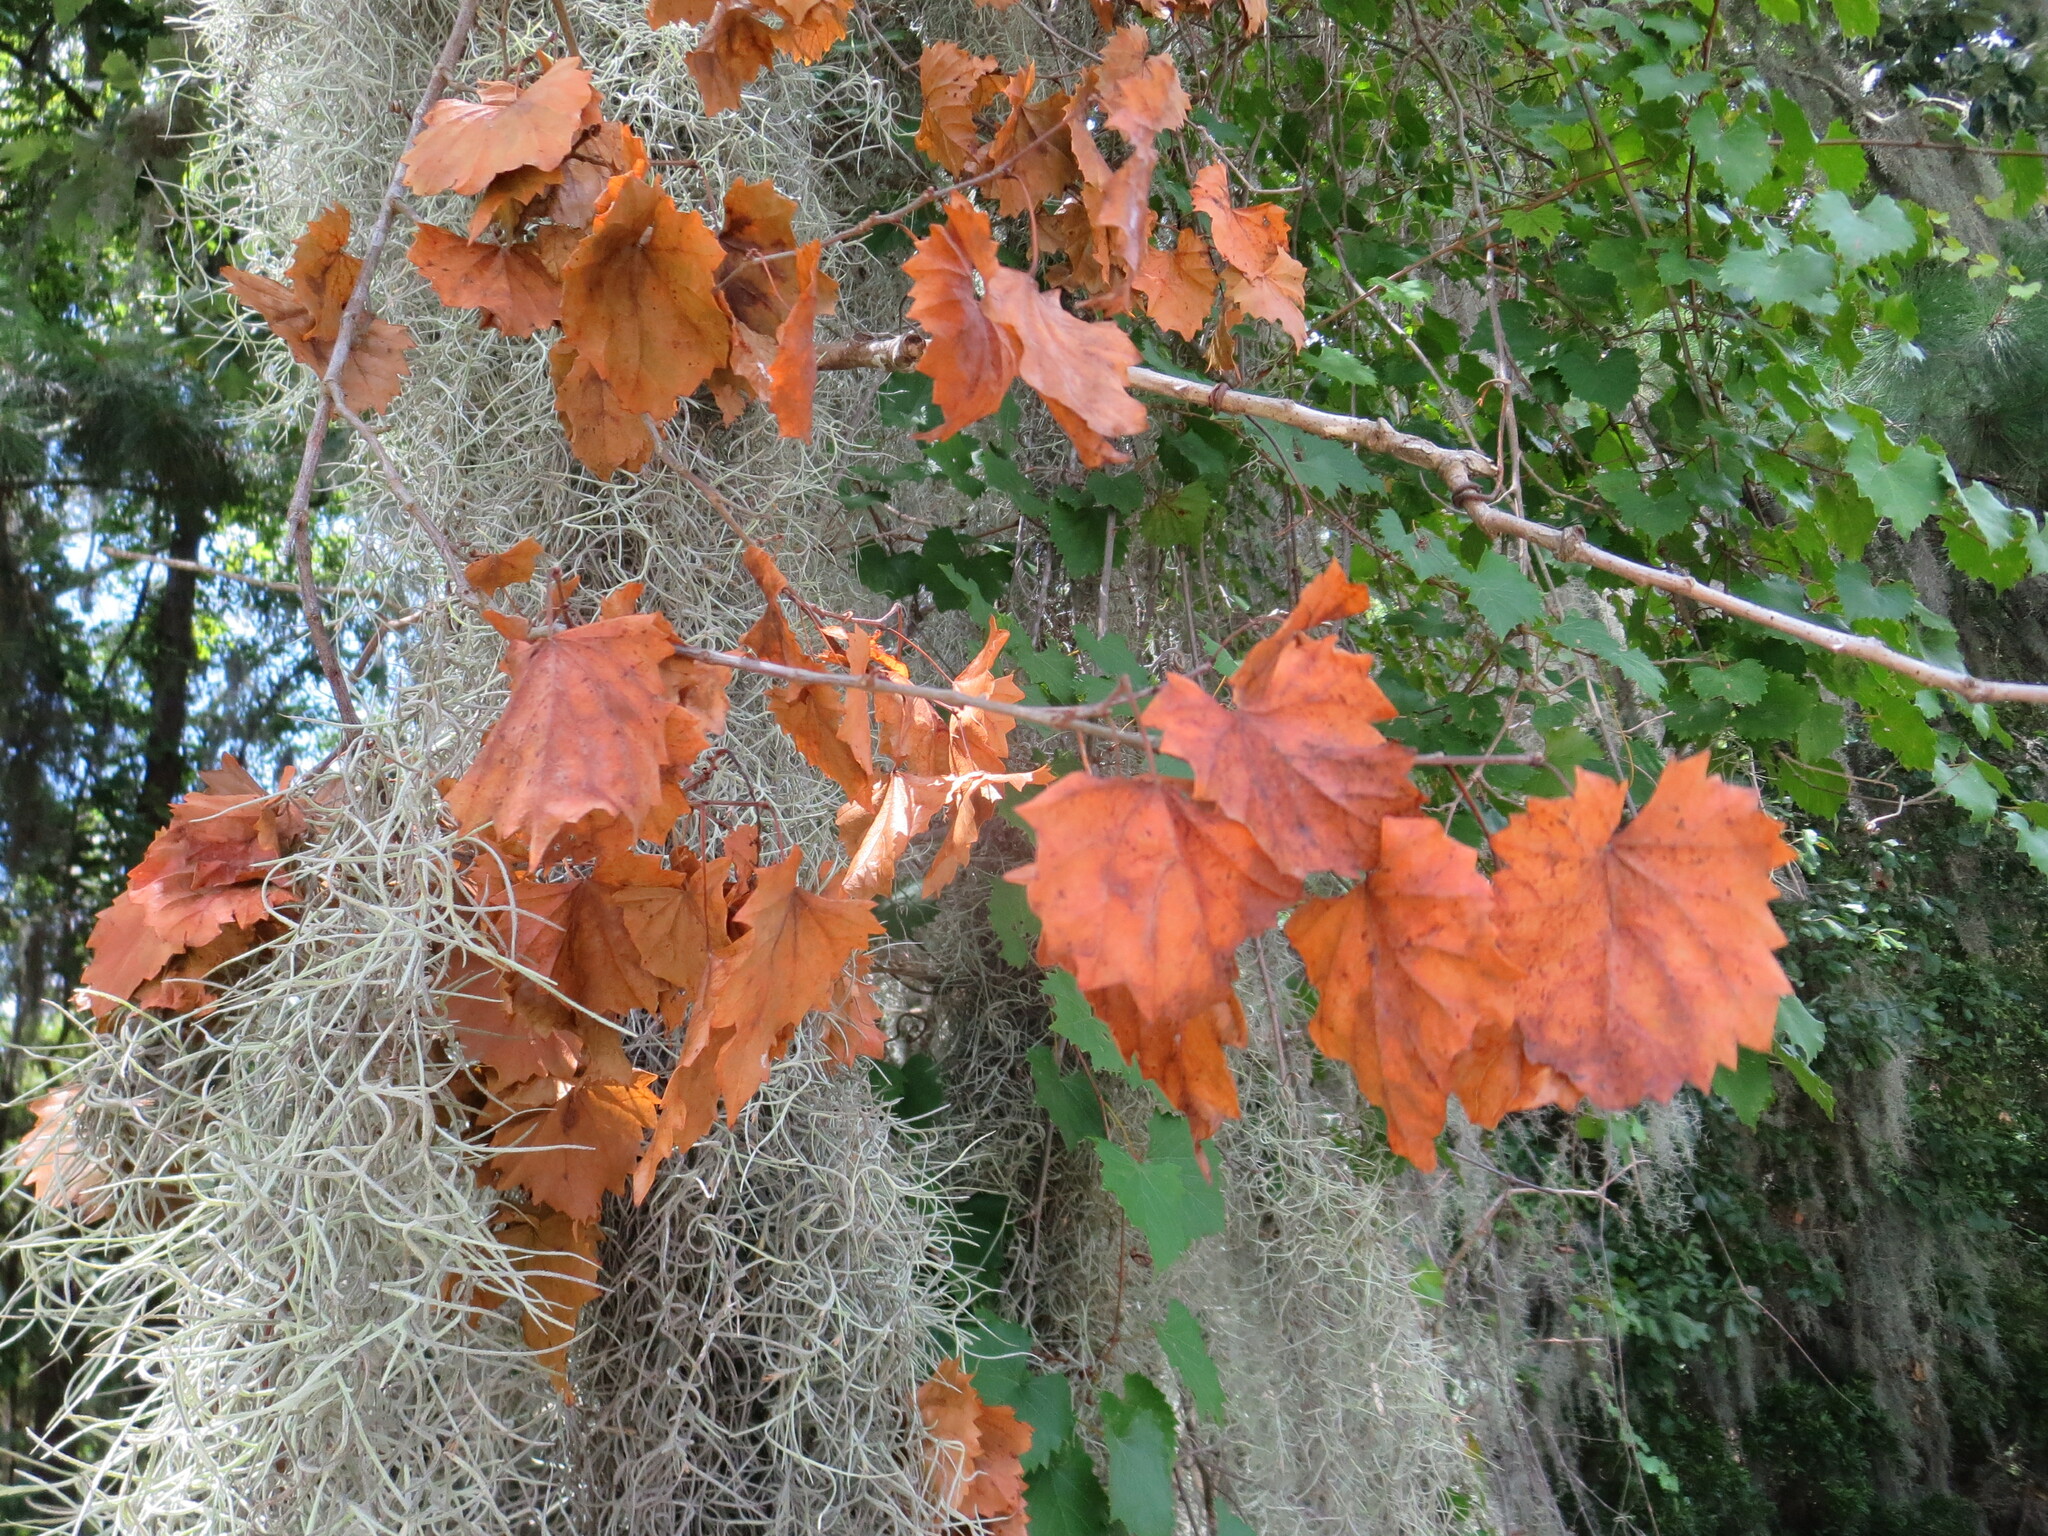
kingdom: Plantae
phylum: Tracheophyta
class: Magnoliopsida
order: Vitales
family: Vitaceae
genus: Vitis
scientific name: Vitis rotundifolia
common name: Muscadine grape
